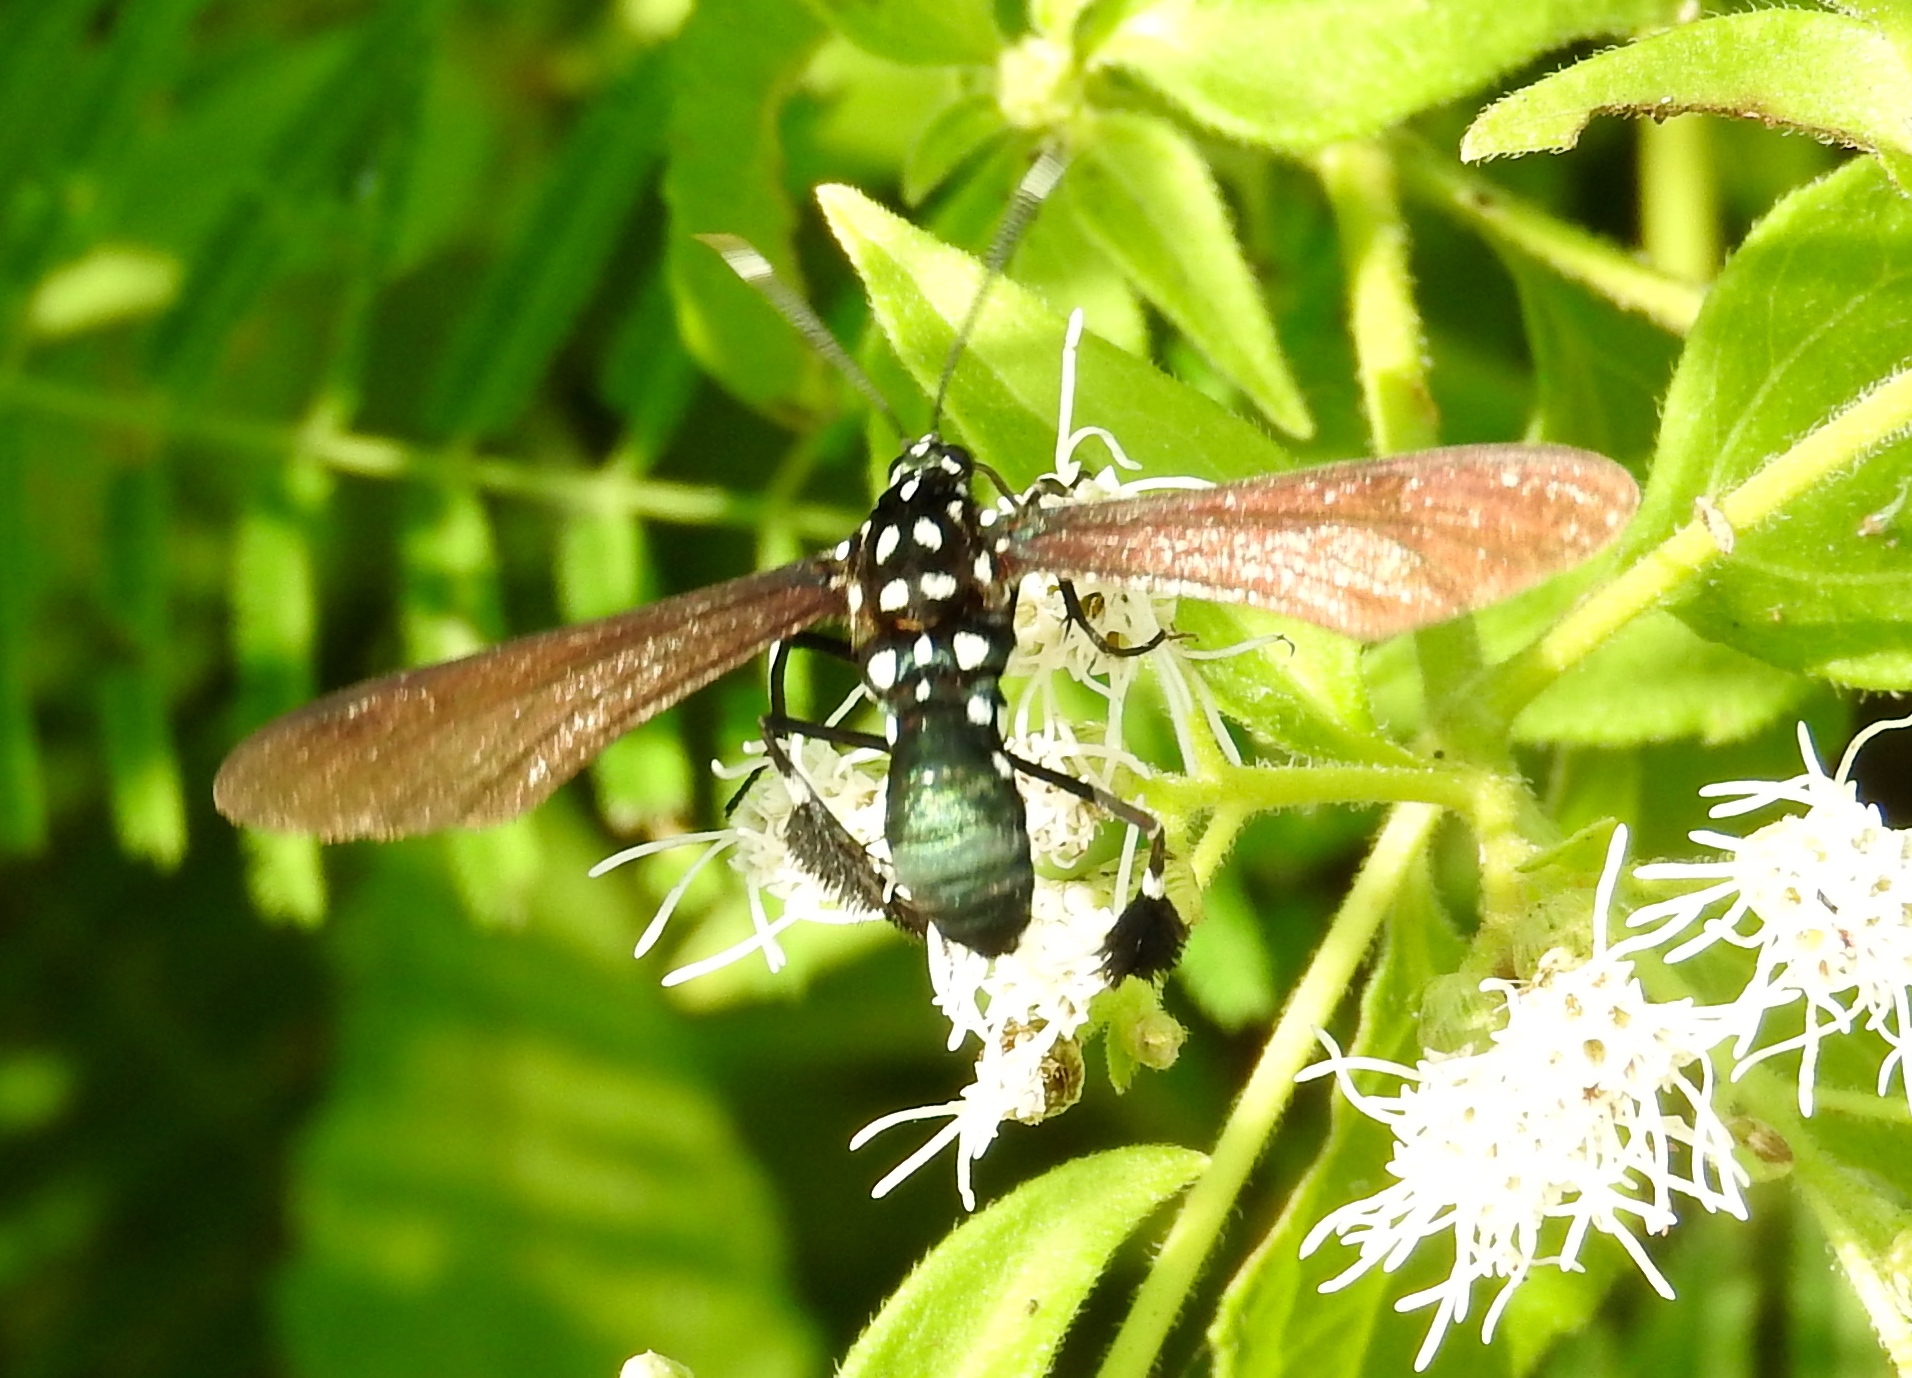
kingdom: Animalia
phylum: Arthropoda
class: Insecta
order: Lepidoptera
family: Erebidae
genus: Horama
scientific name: Horama plumipes
